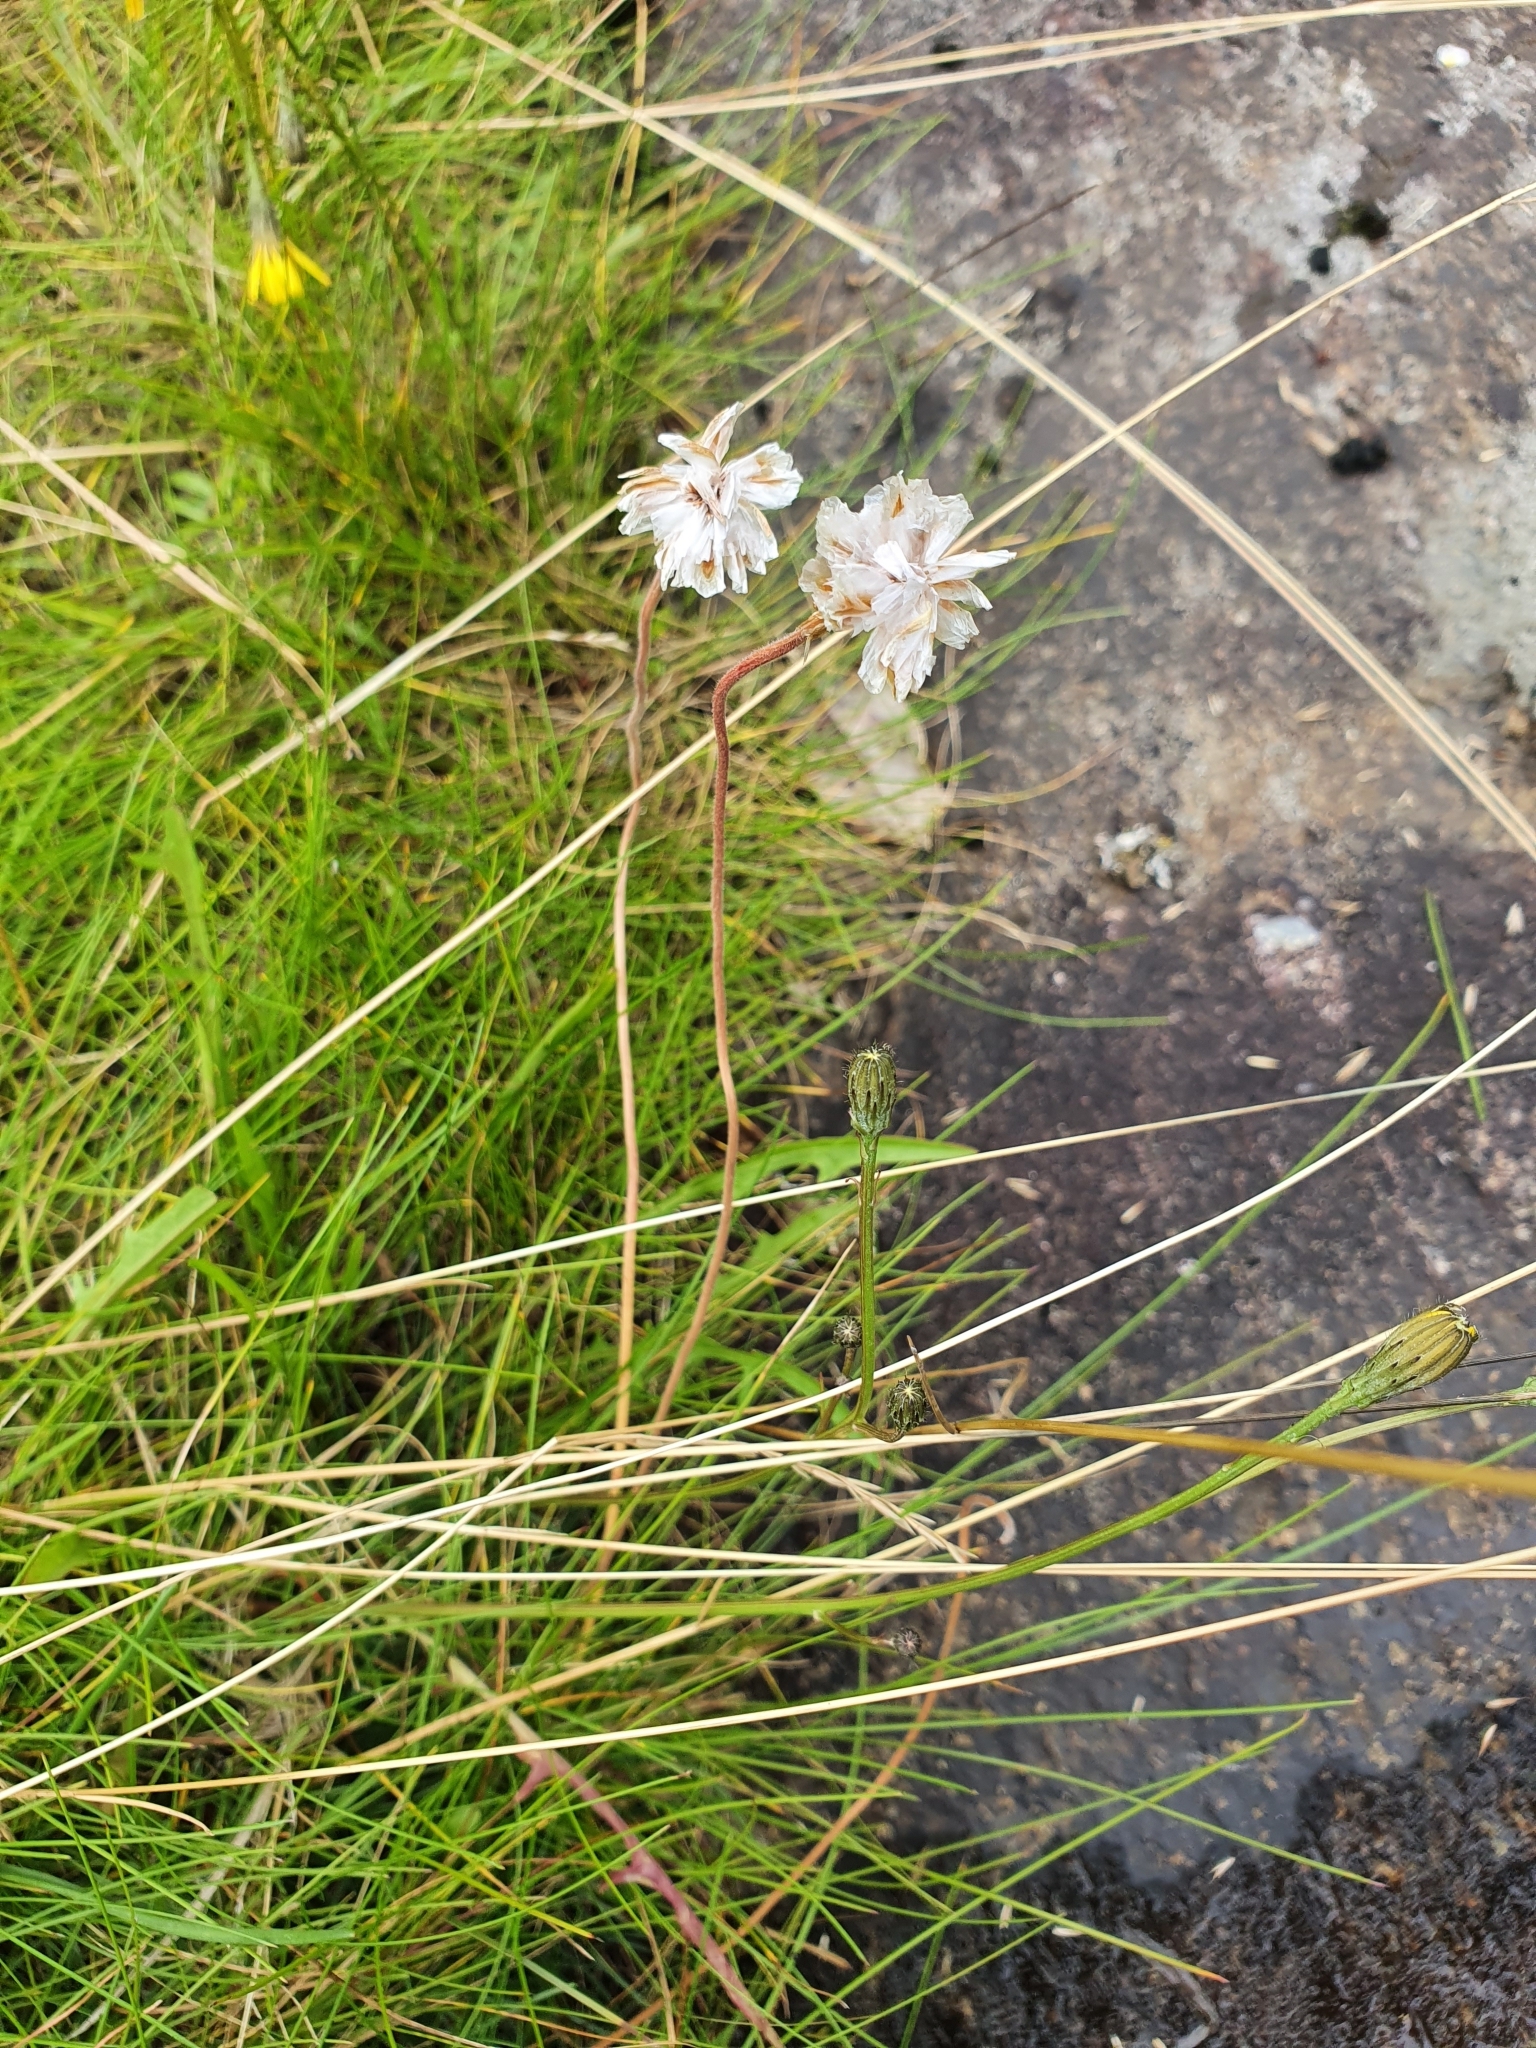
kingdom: Plantae
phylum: Tracheophyta
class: Magnoliopsida
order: Caryophyllales
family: Plumbaginaceae
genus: Armeria
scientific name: Armeria maritima
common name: Thrift
